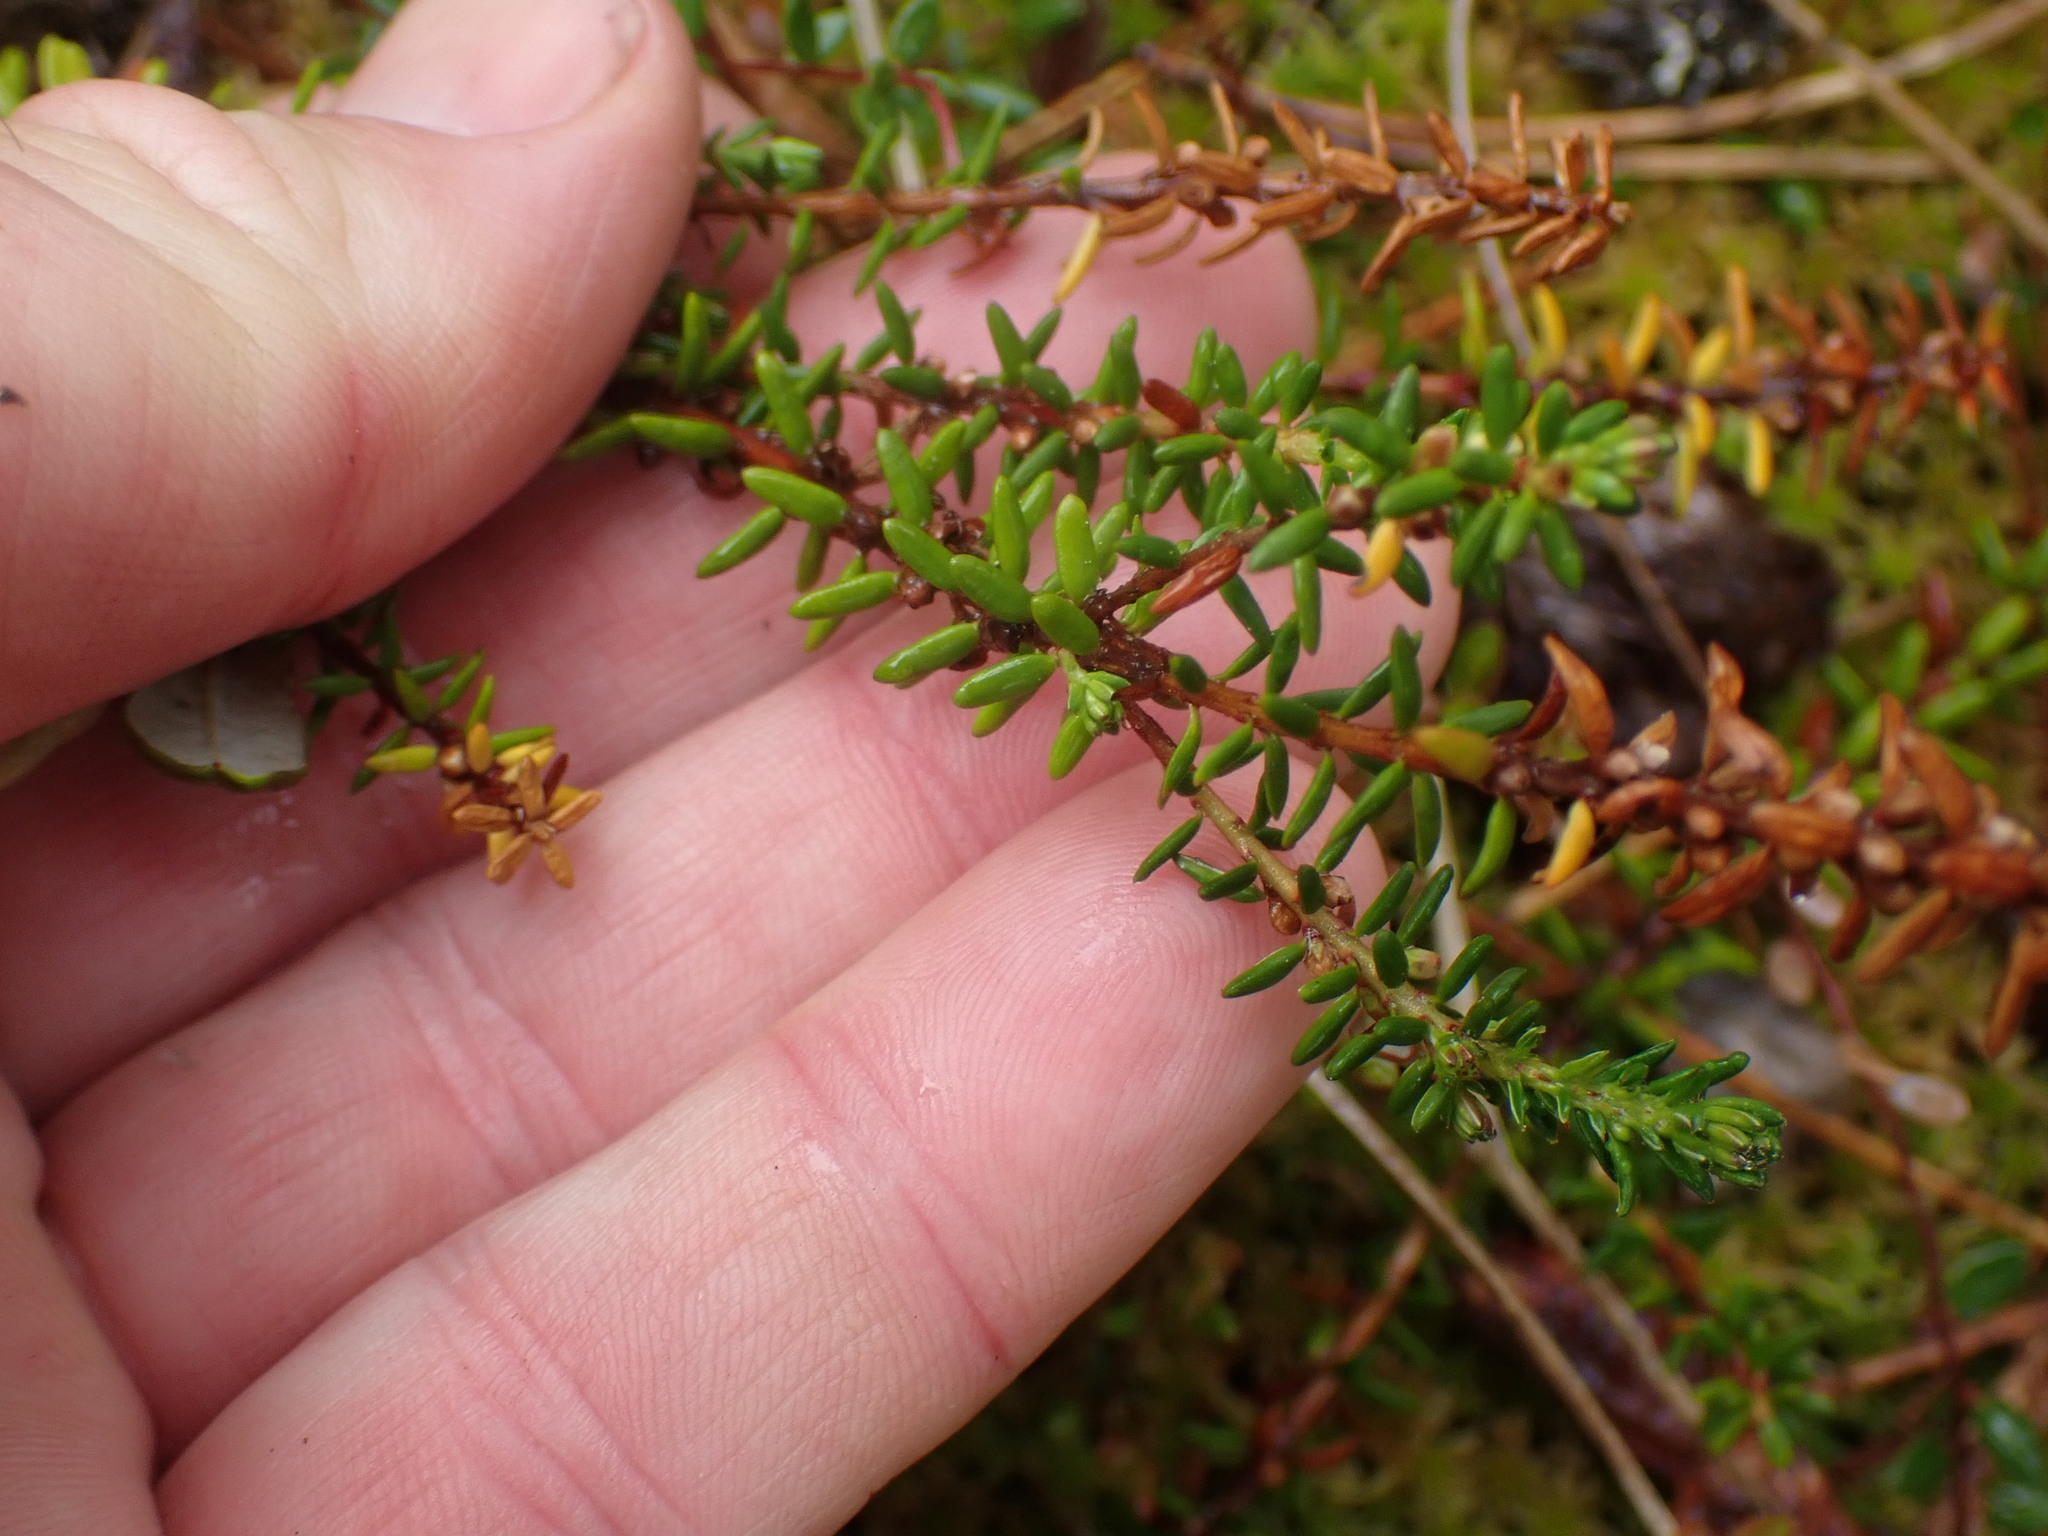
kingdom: Plantae
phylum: Tracheophyta
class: Magnoliopsida
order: Ericales
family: Ericaceae
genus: Empetrum
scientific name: Empetrum nigrum
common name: Black crowberry
